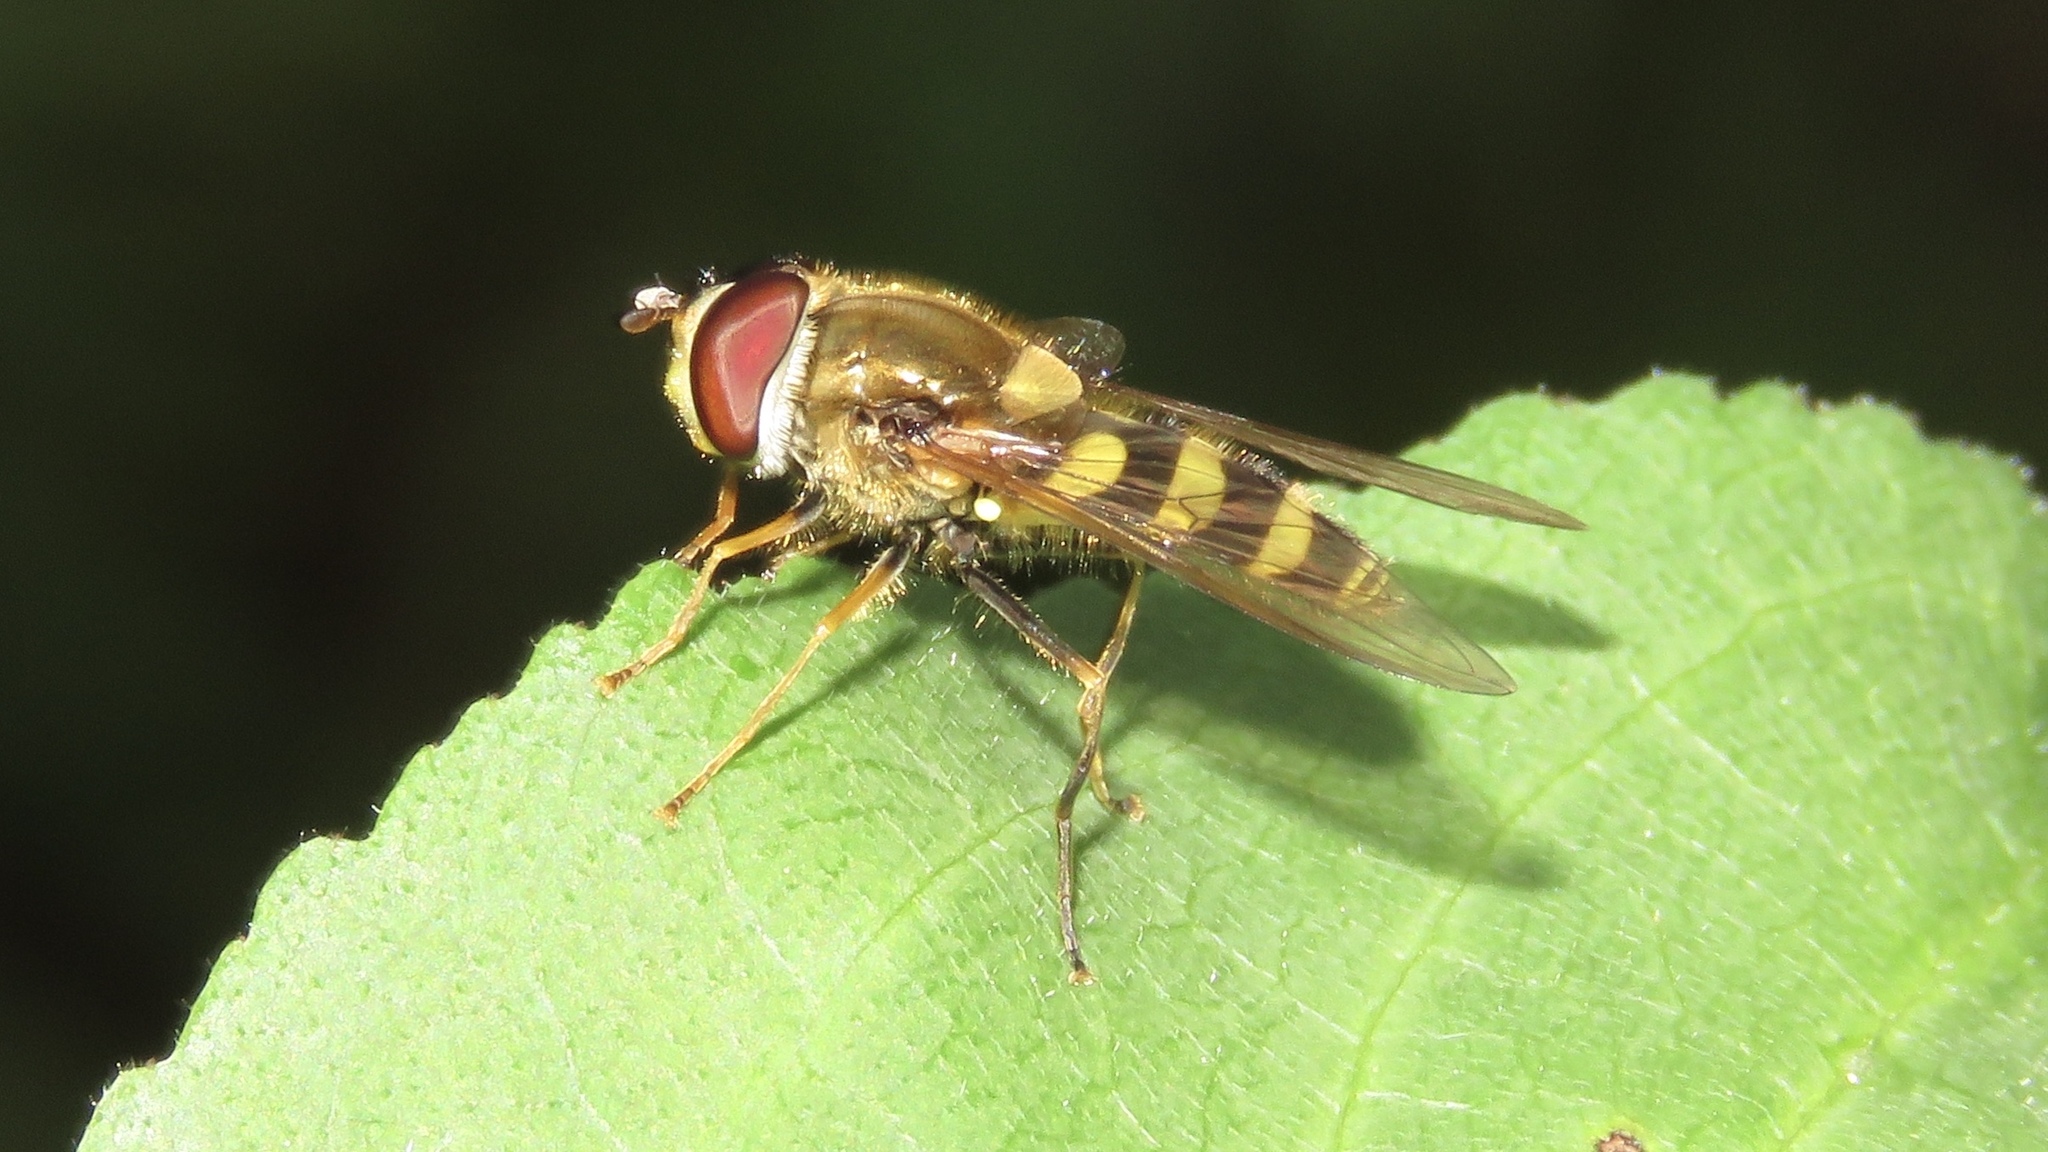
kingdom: Animalia
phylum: Arthropoda
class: Insecta
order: Diptera
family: Syrphidae
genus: Syrphus
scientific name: Syrphus
